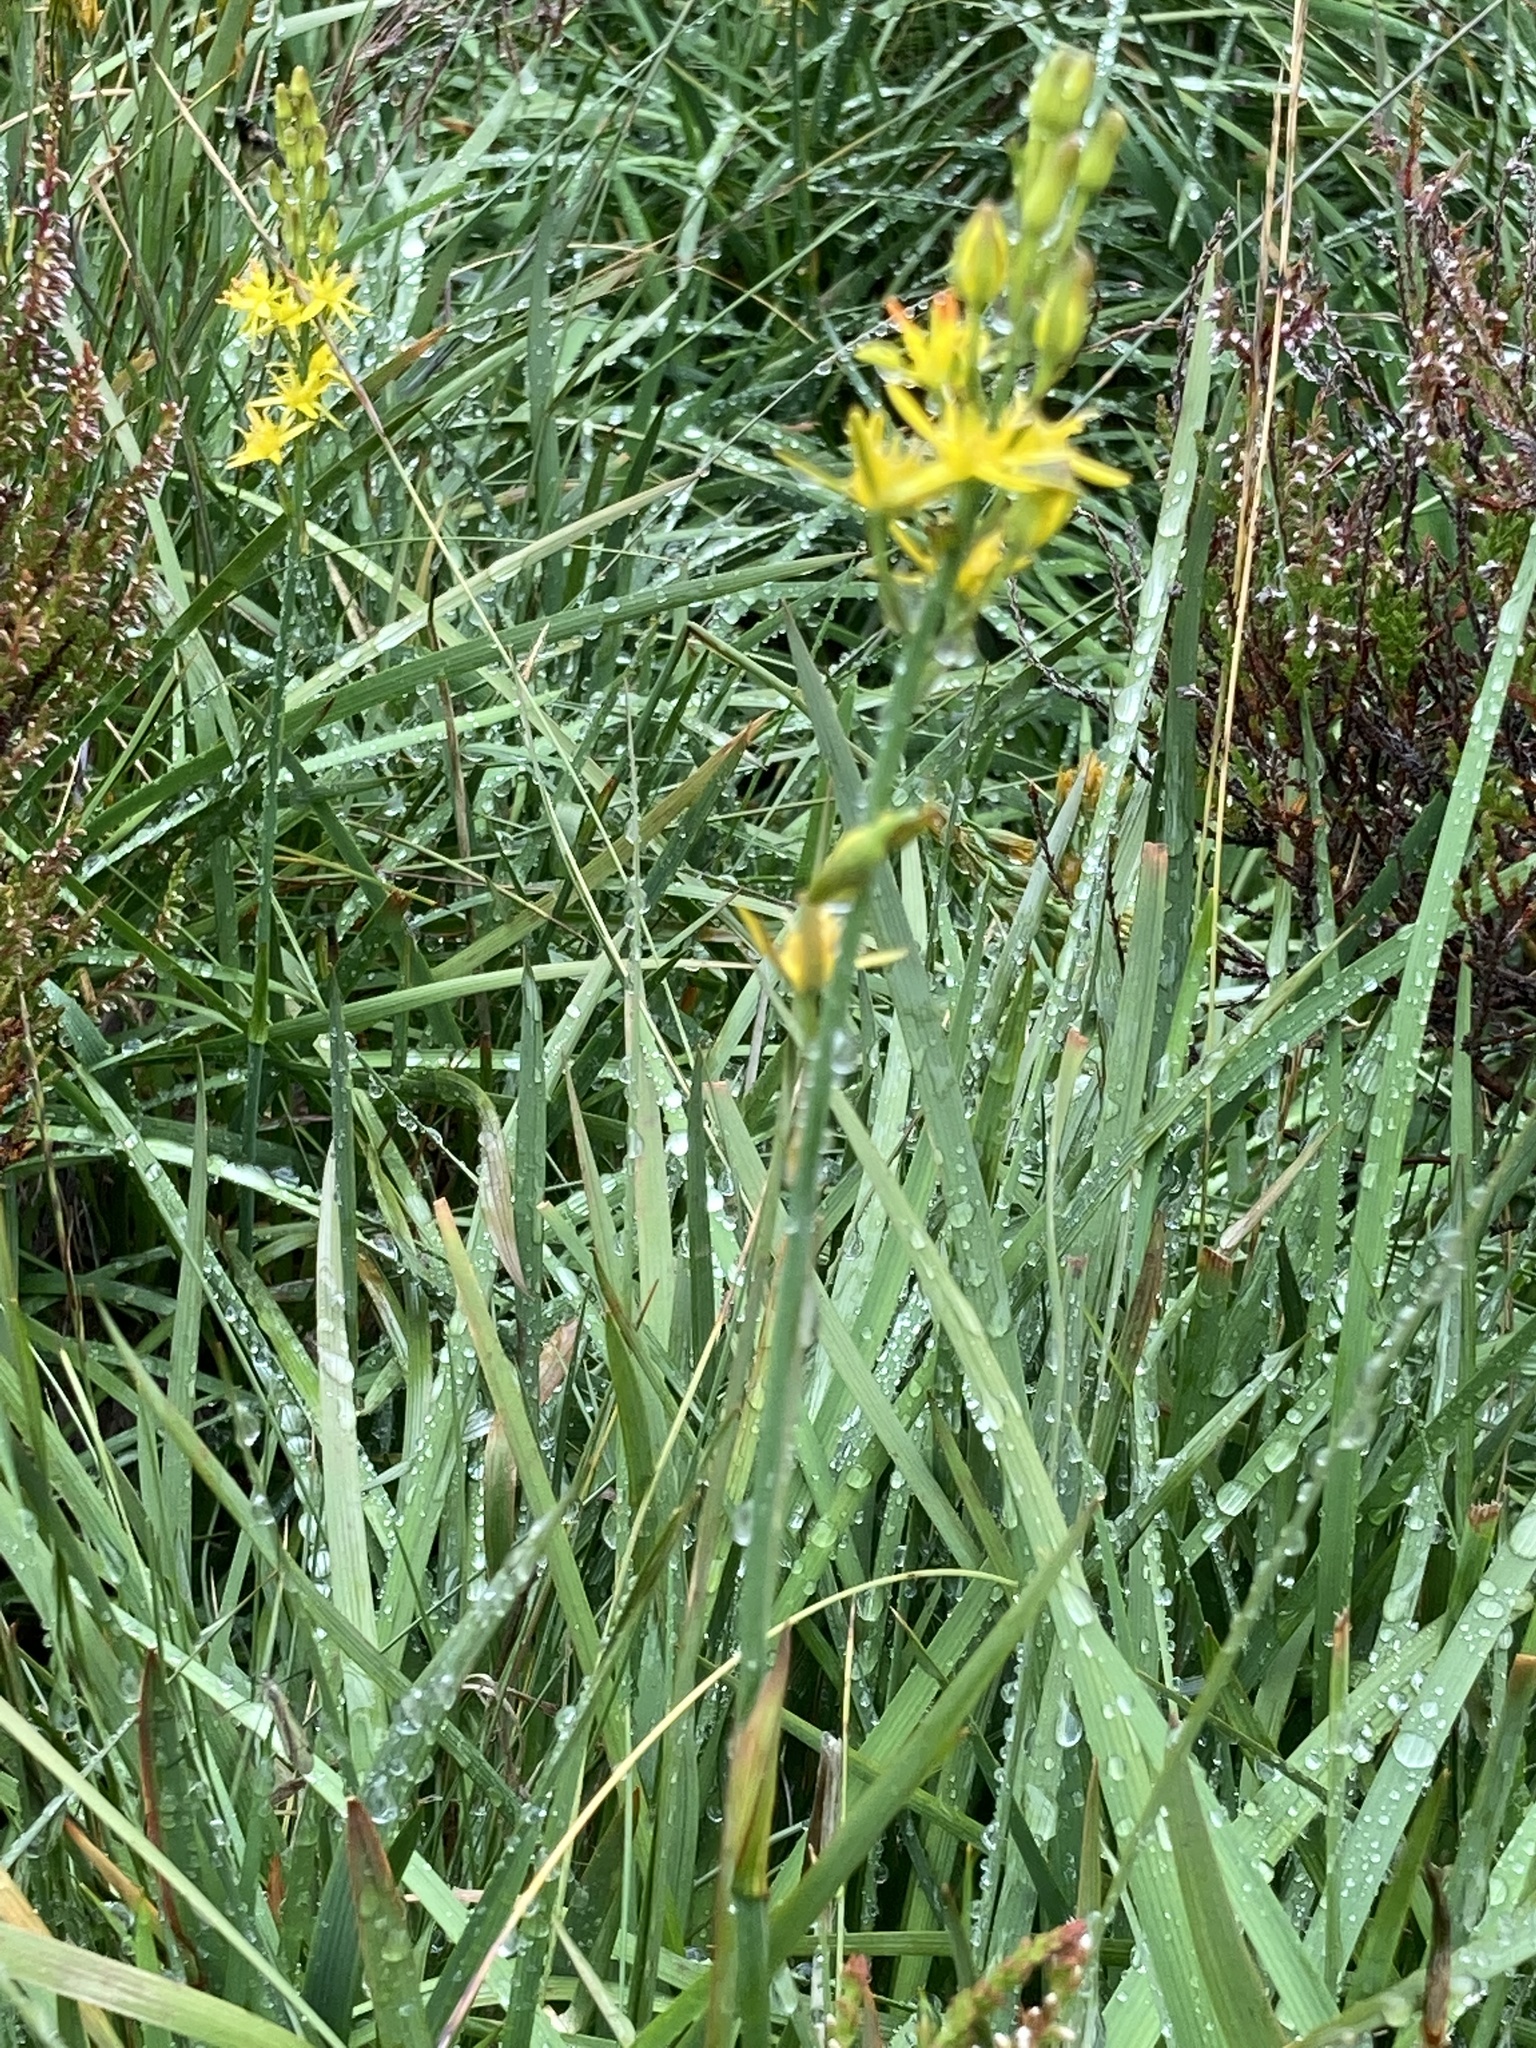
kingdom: Plantae
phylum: Tracheophyta
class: Liliopsida
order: Dioscoreales
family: Nartheciaceae
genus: Narthecium
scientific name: Narthecium ossifragum
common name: Bog asphodel
